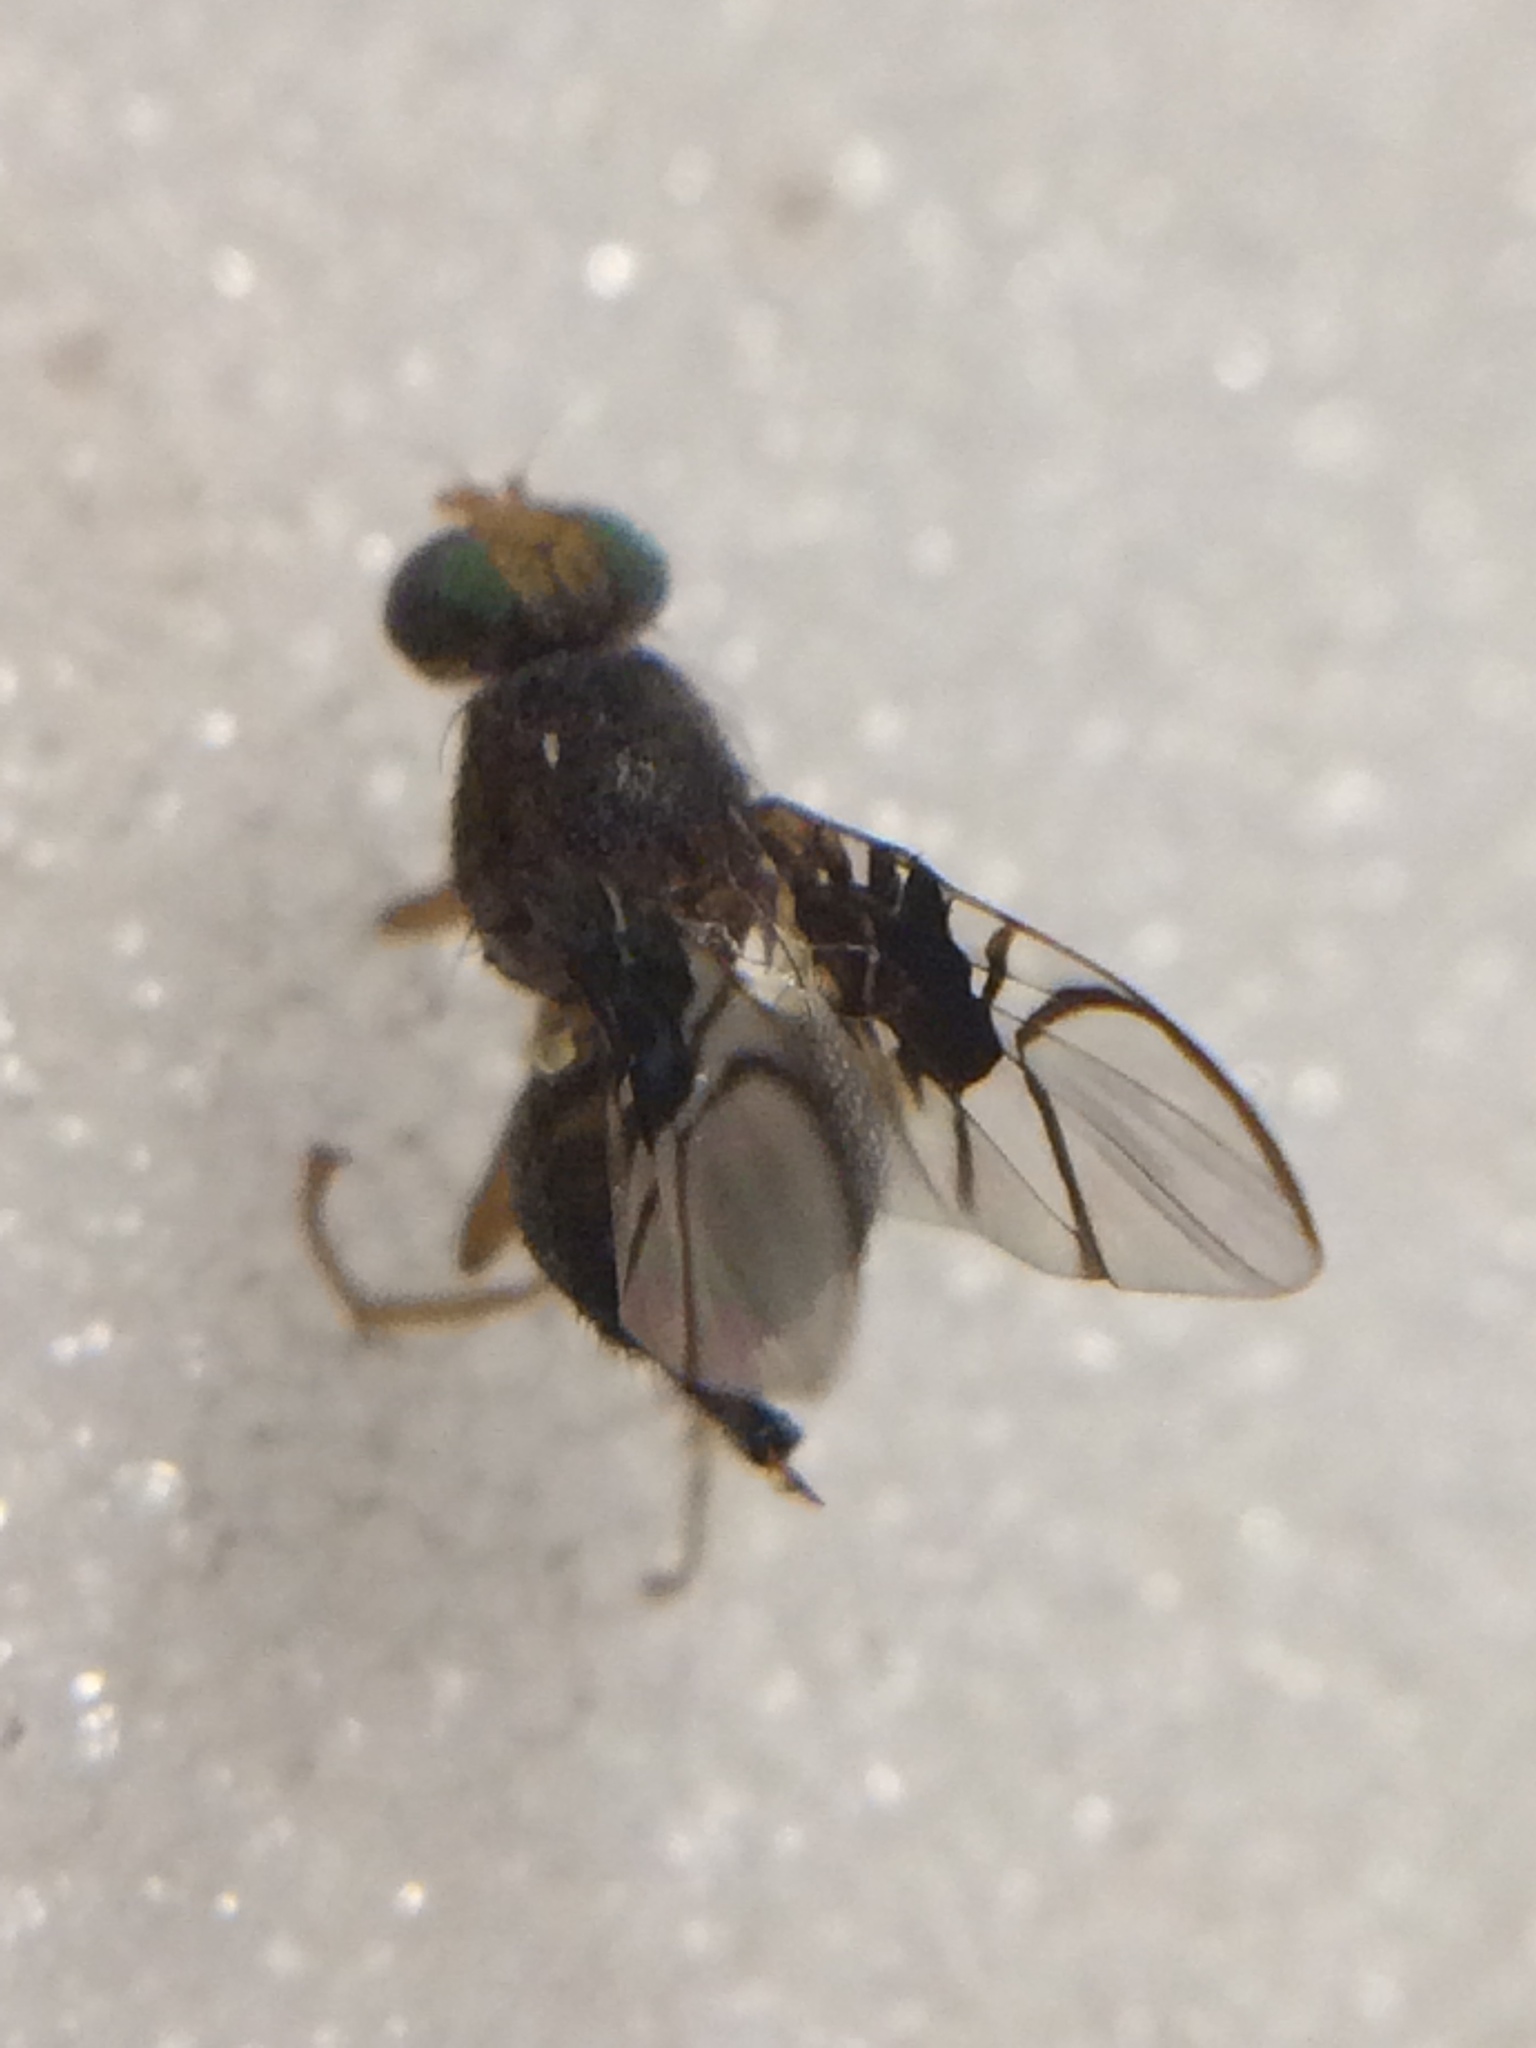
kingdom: Animalia
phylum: Arthropoda
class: Insecta
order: Diptera
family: Tephritidae
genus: Anomoia
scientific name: Anomoia purmunda
